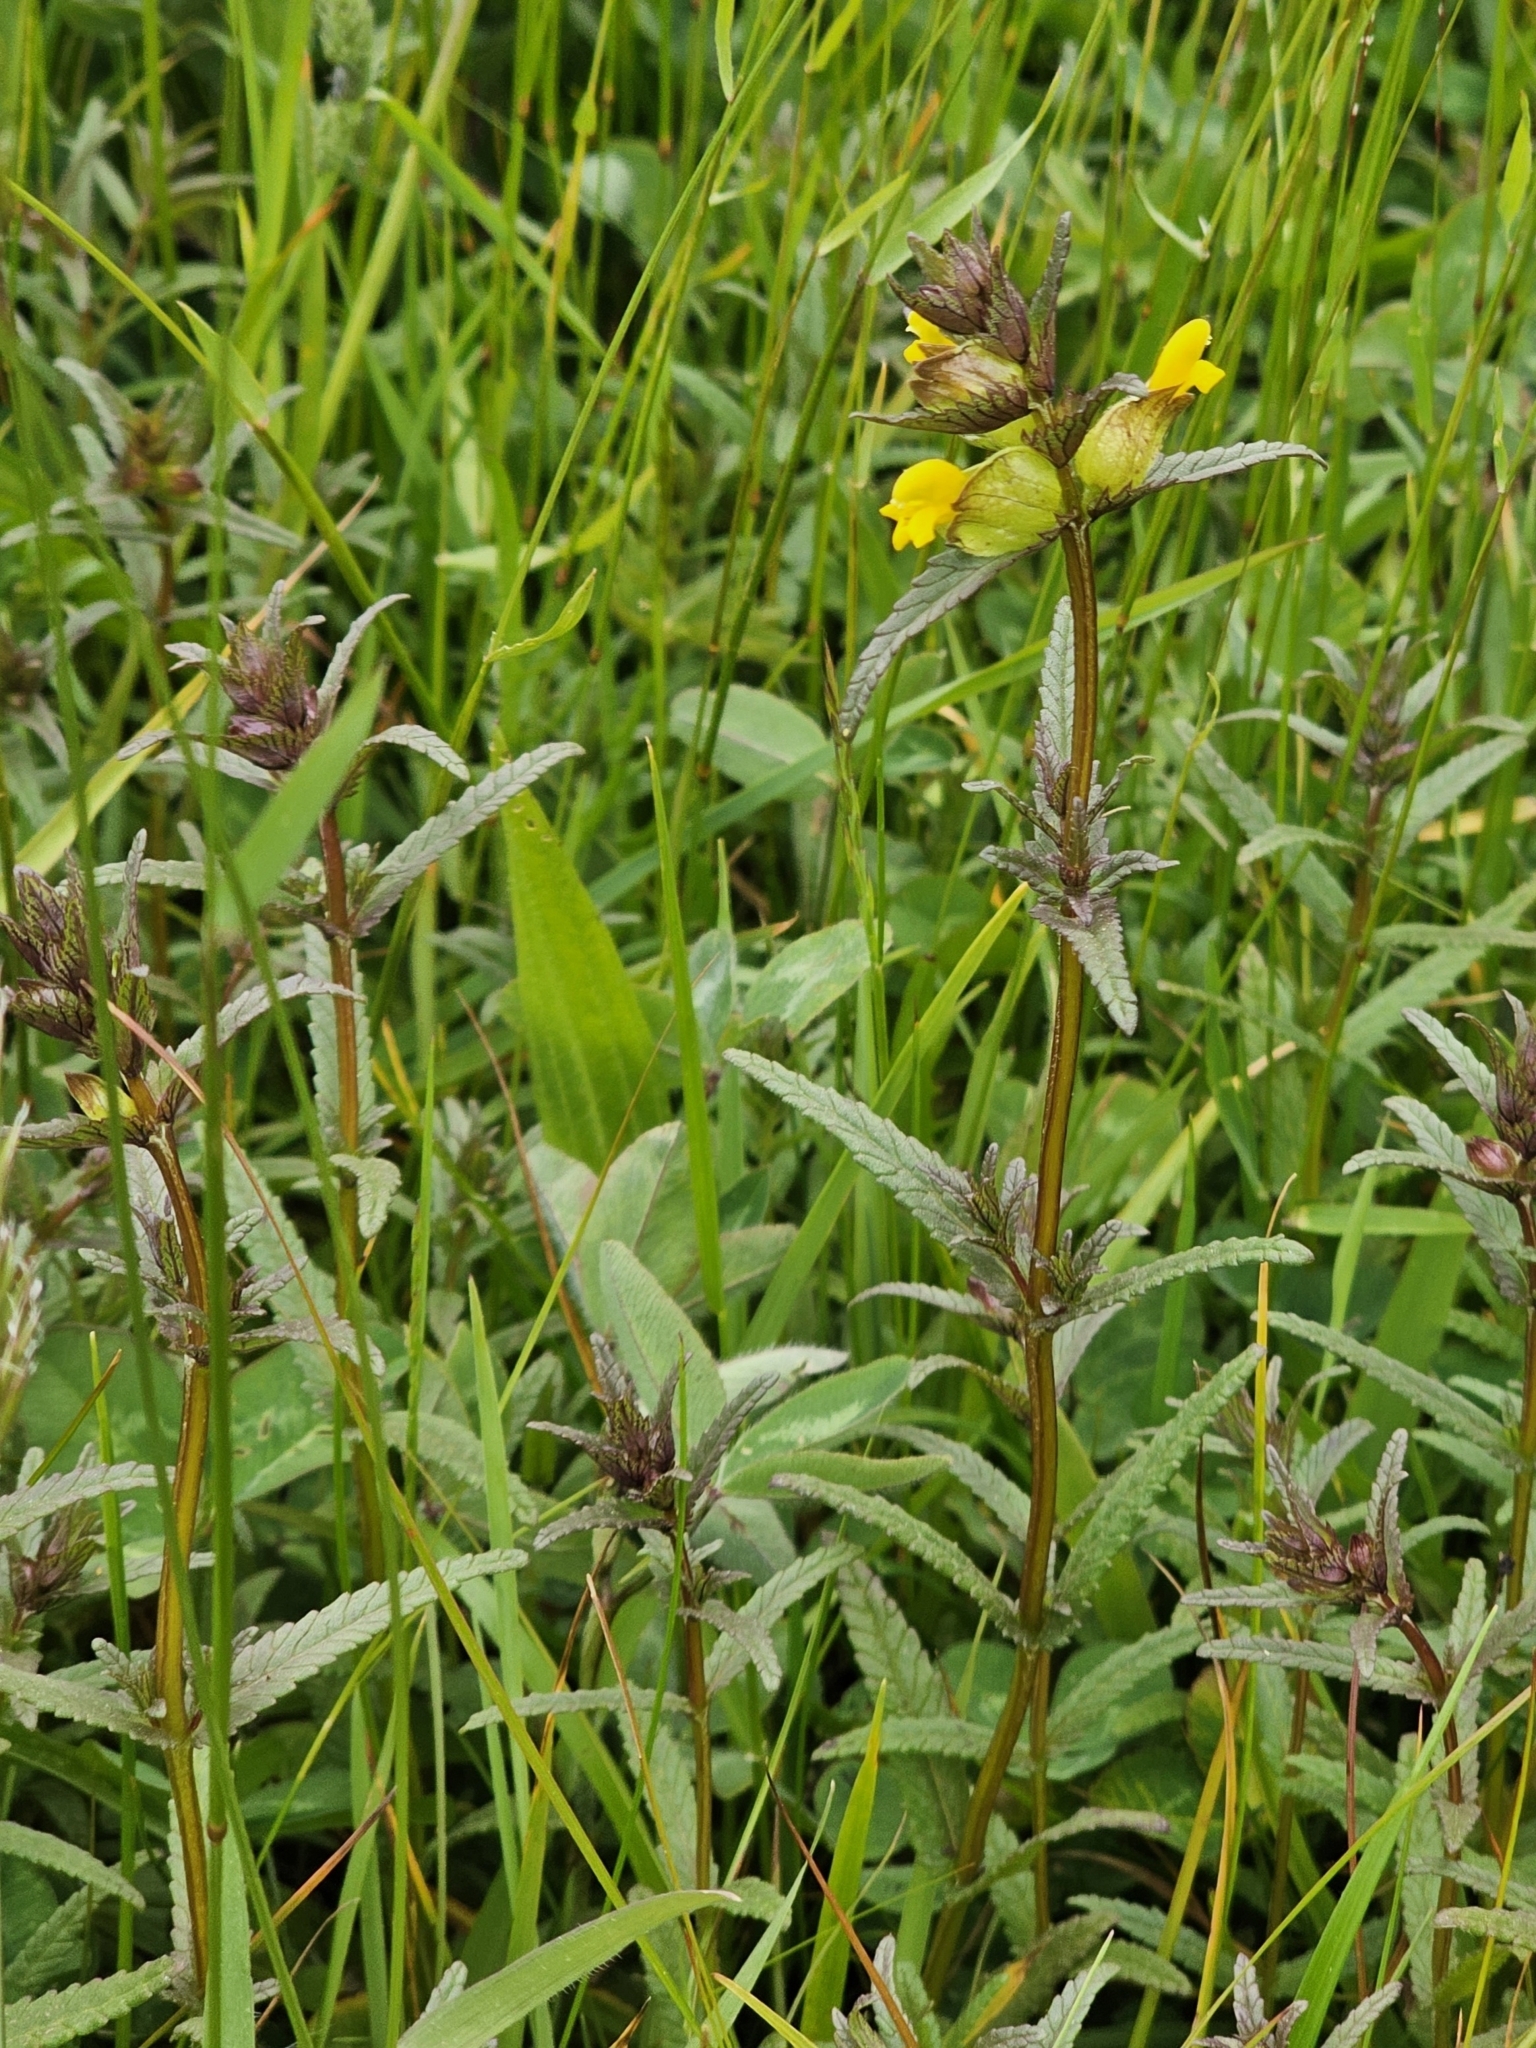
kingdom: Plantae
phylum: Tracheophyta
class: Magnoliopsida
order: Lamiales
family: Orobanchaceae
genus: Rhinanthus
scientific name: Rhinanthus minor
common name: Yellow-rattle
